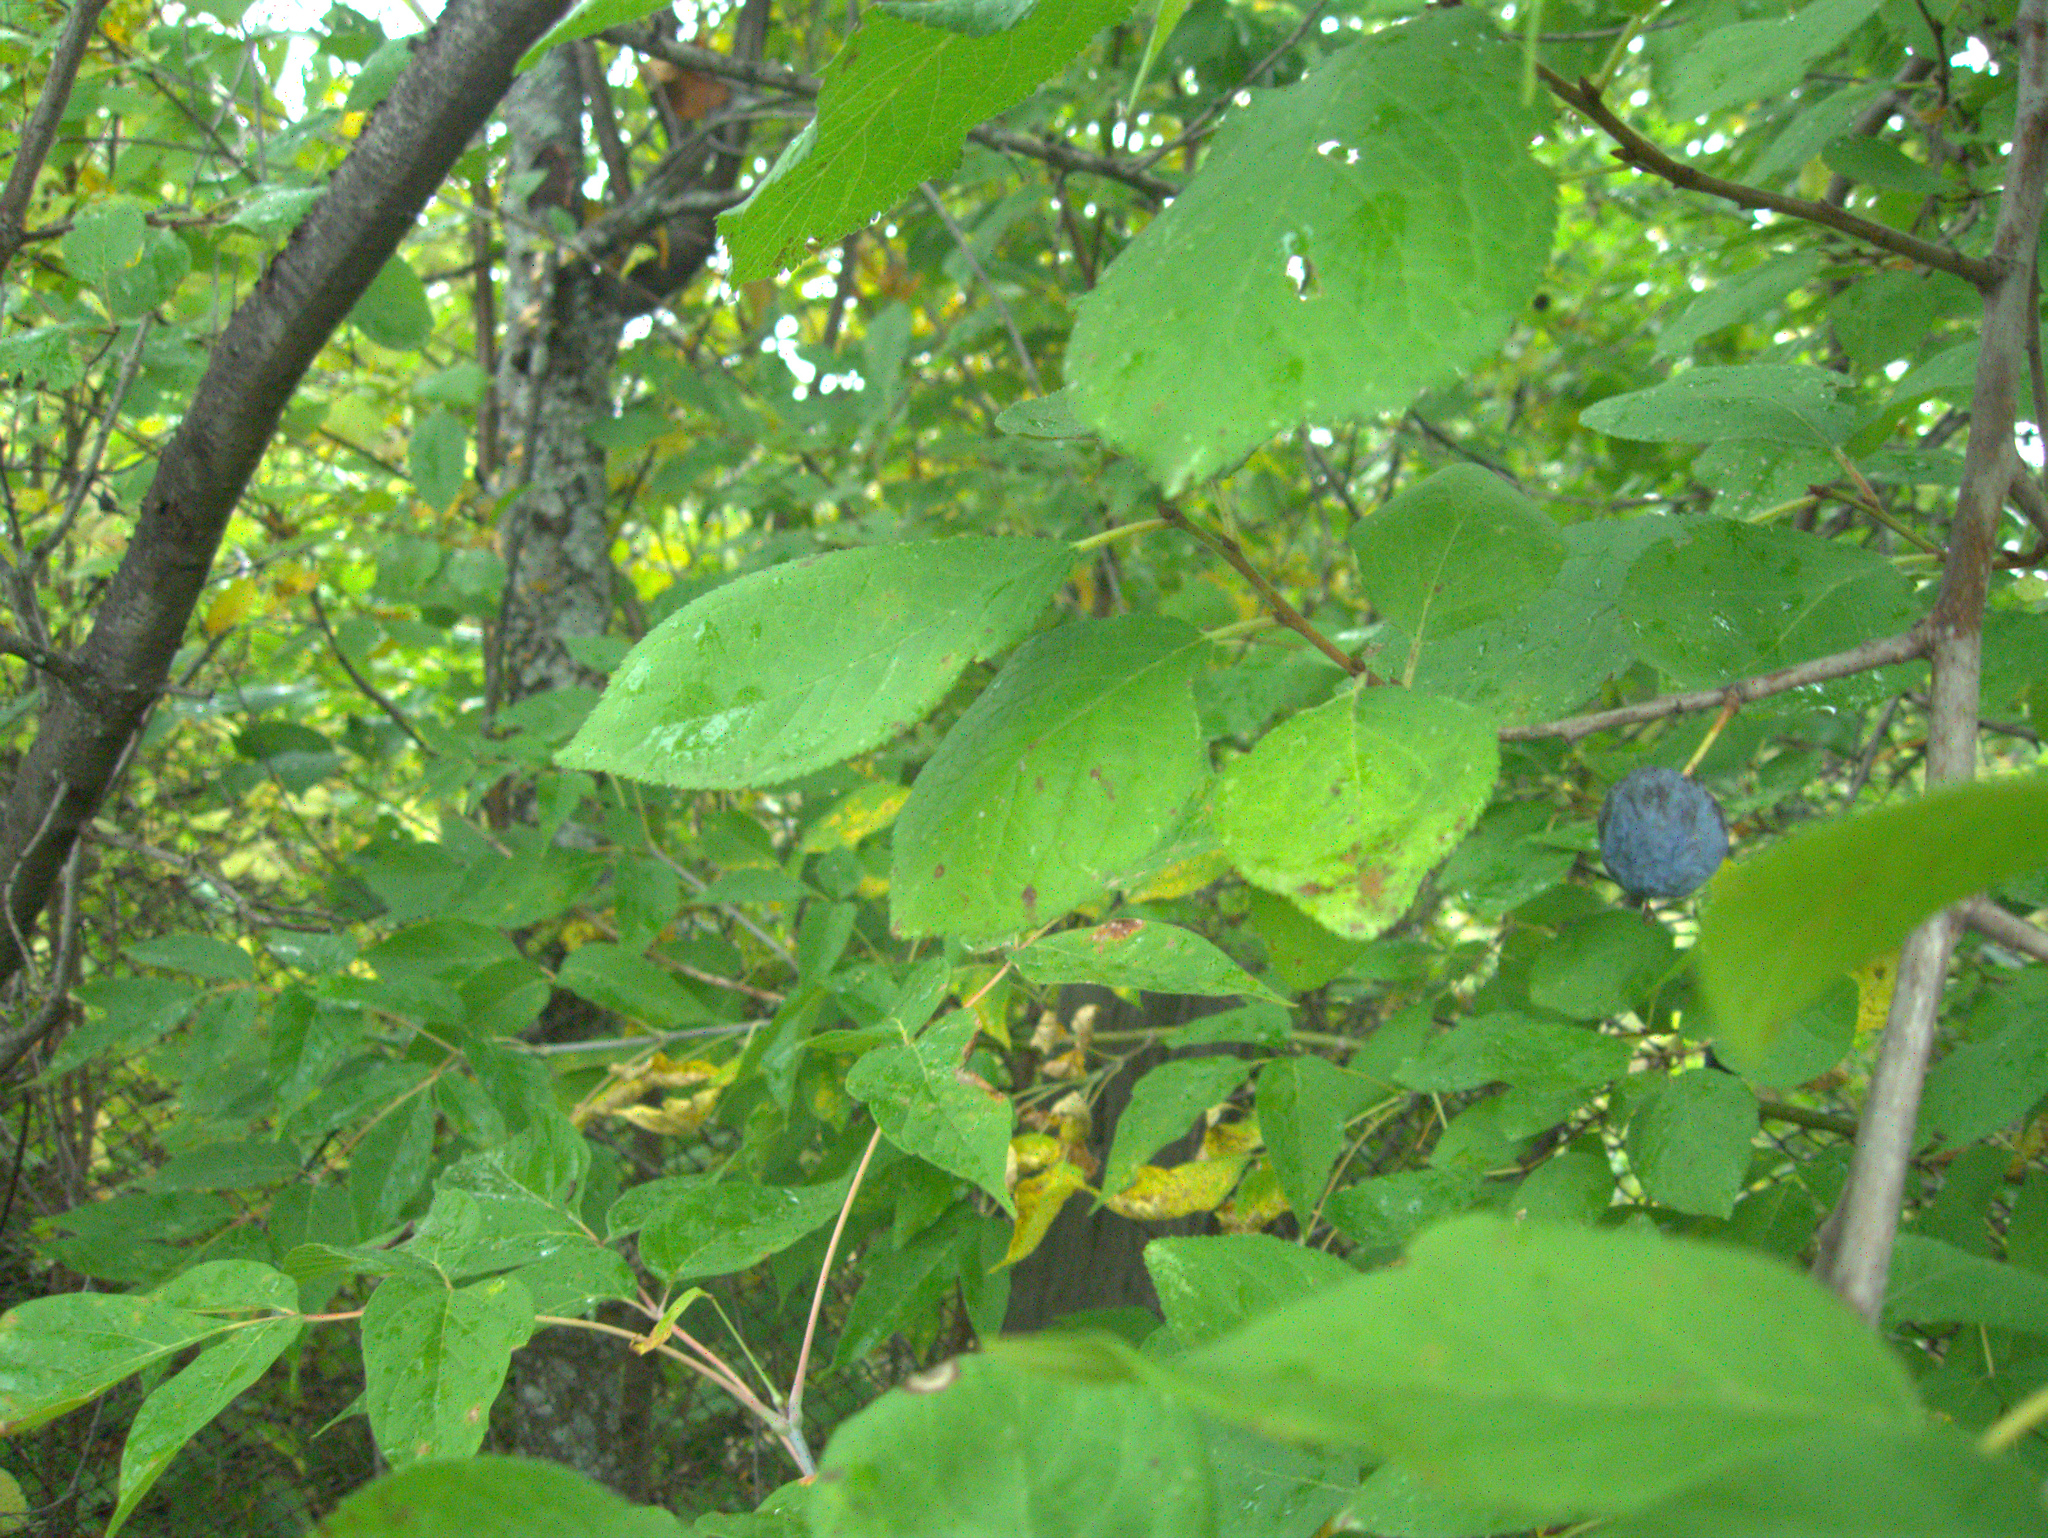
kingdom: Plantae
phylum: Tracheophyta
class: Magnoliopsida
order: Rosales
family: Rosaceae
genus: Prunus
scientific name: Prunus spinosa
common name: Blackthorn
